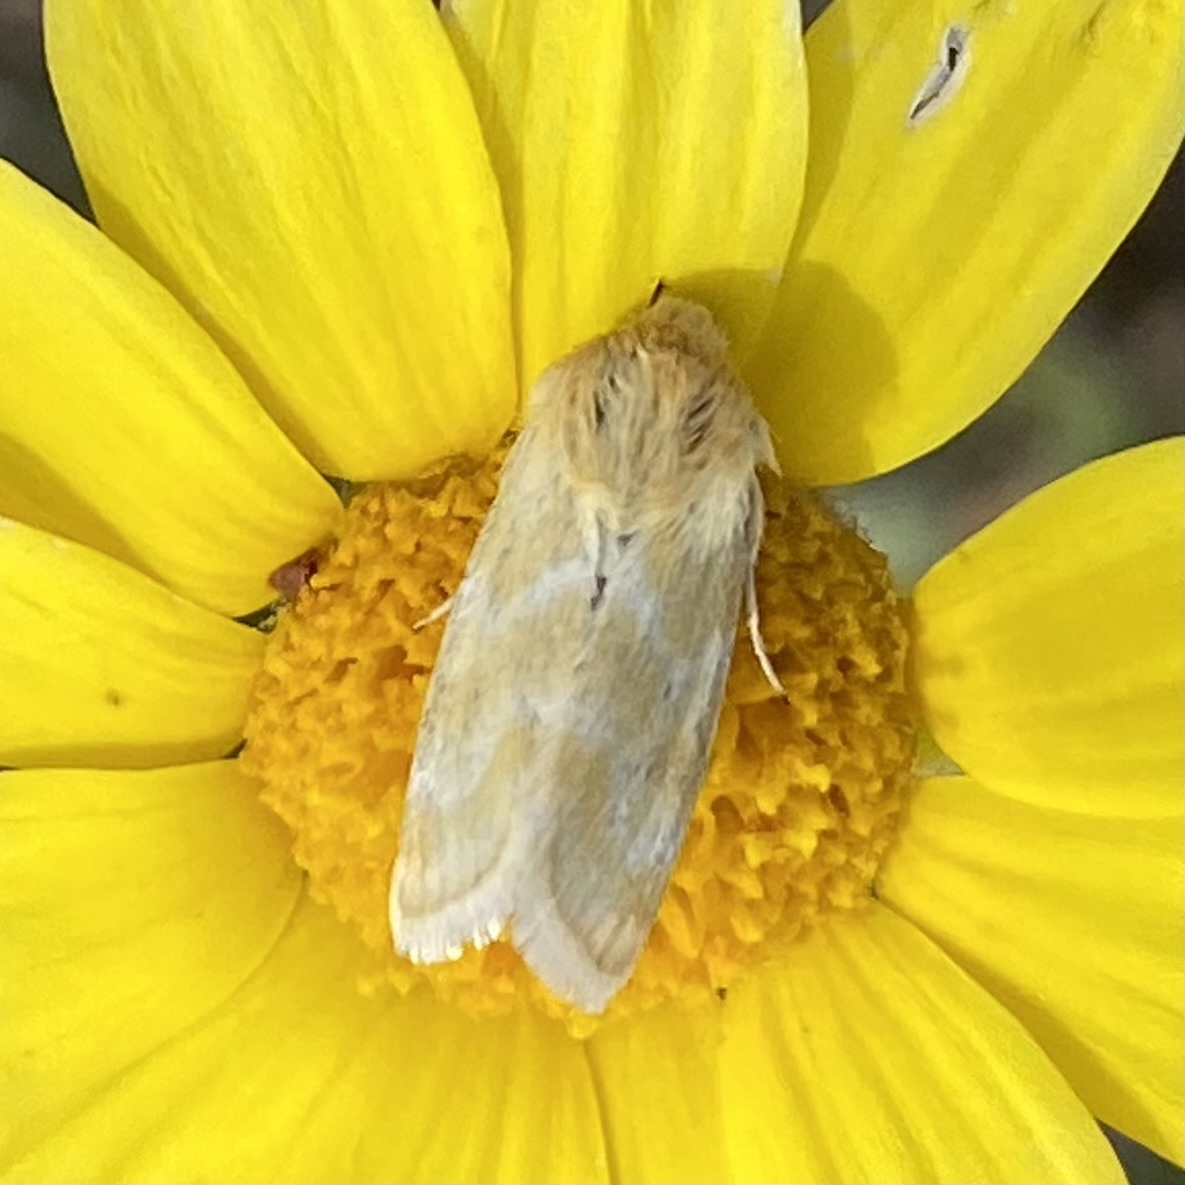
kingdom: Animalia
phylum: Arthropoda
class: Insecta
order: Lepidoptera
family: Noctuidae
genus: Schinia
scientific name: Schinia biforma
